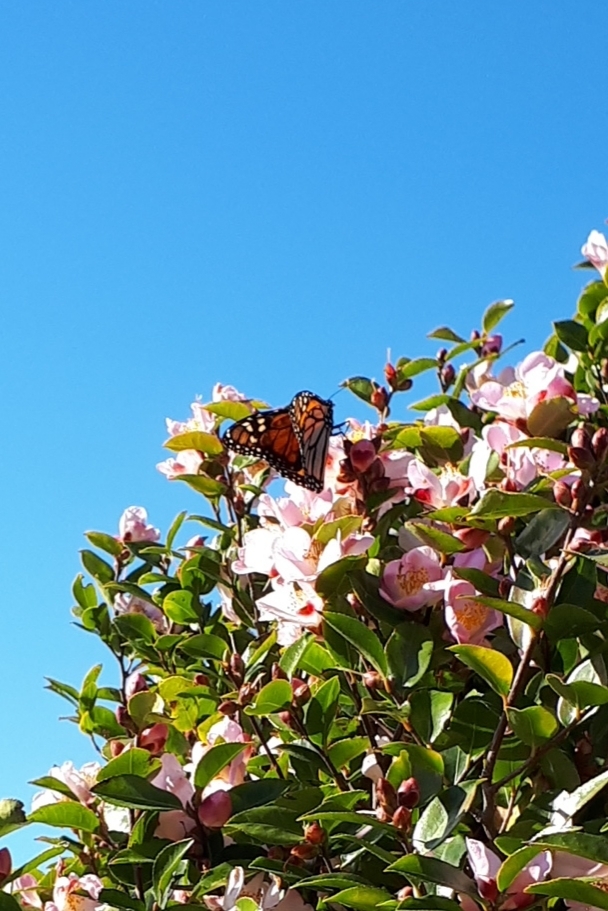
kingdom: Animalia
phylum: Arthropoda
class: Insecta
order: Lepidoptera
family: Nymphalidae
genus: Danaus
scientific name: Danaus plexippus
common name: Monarch
